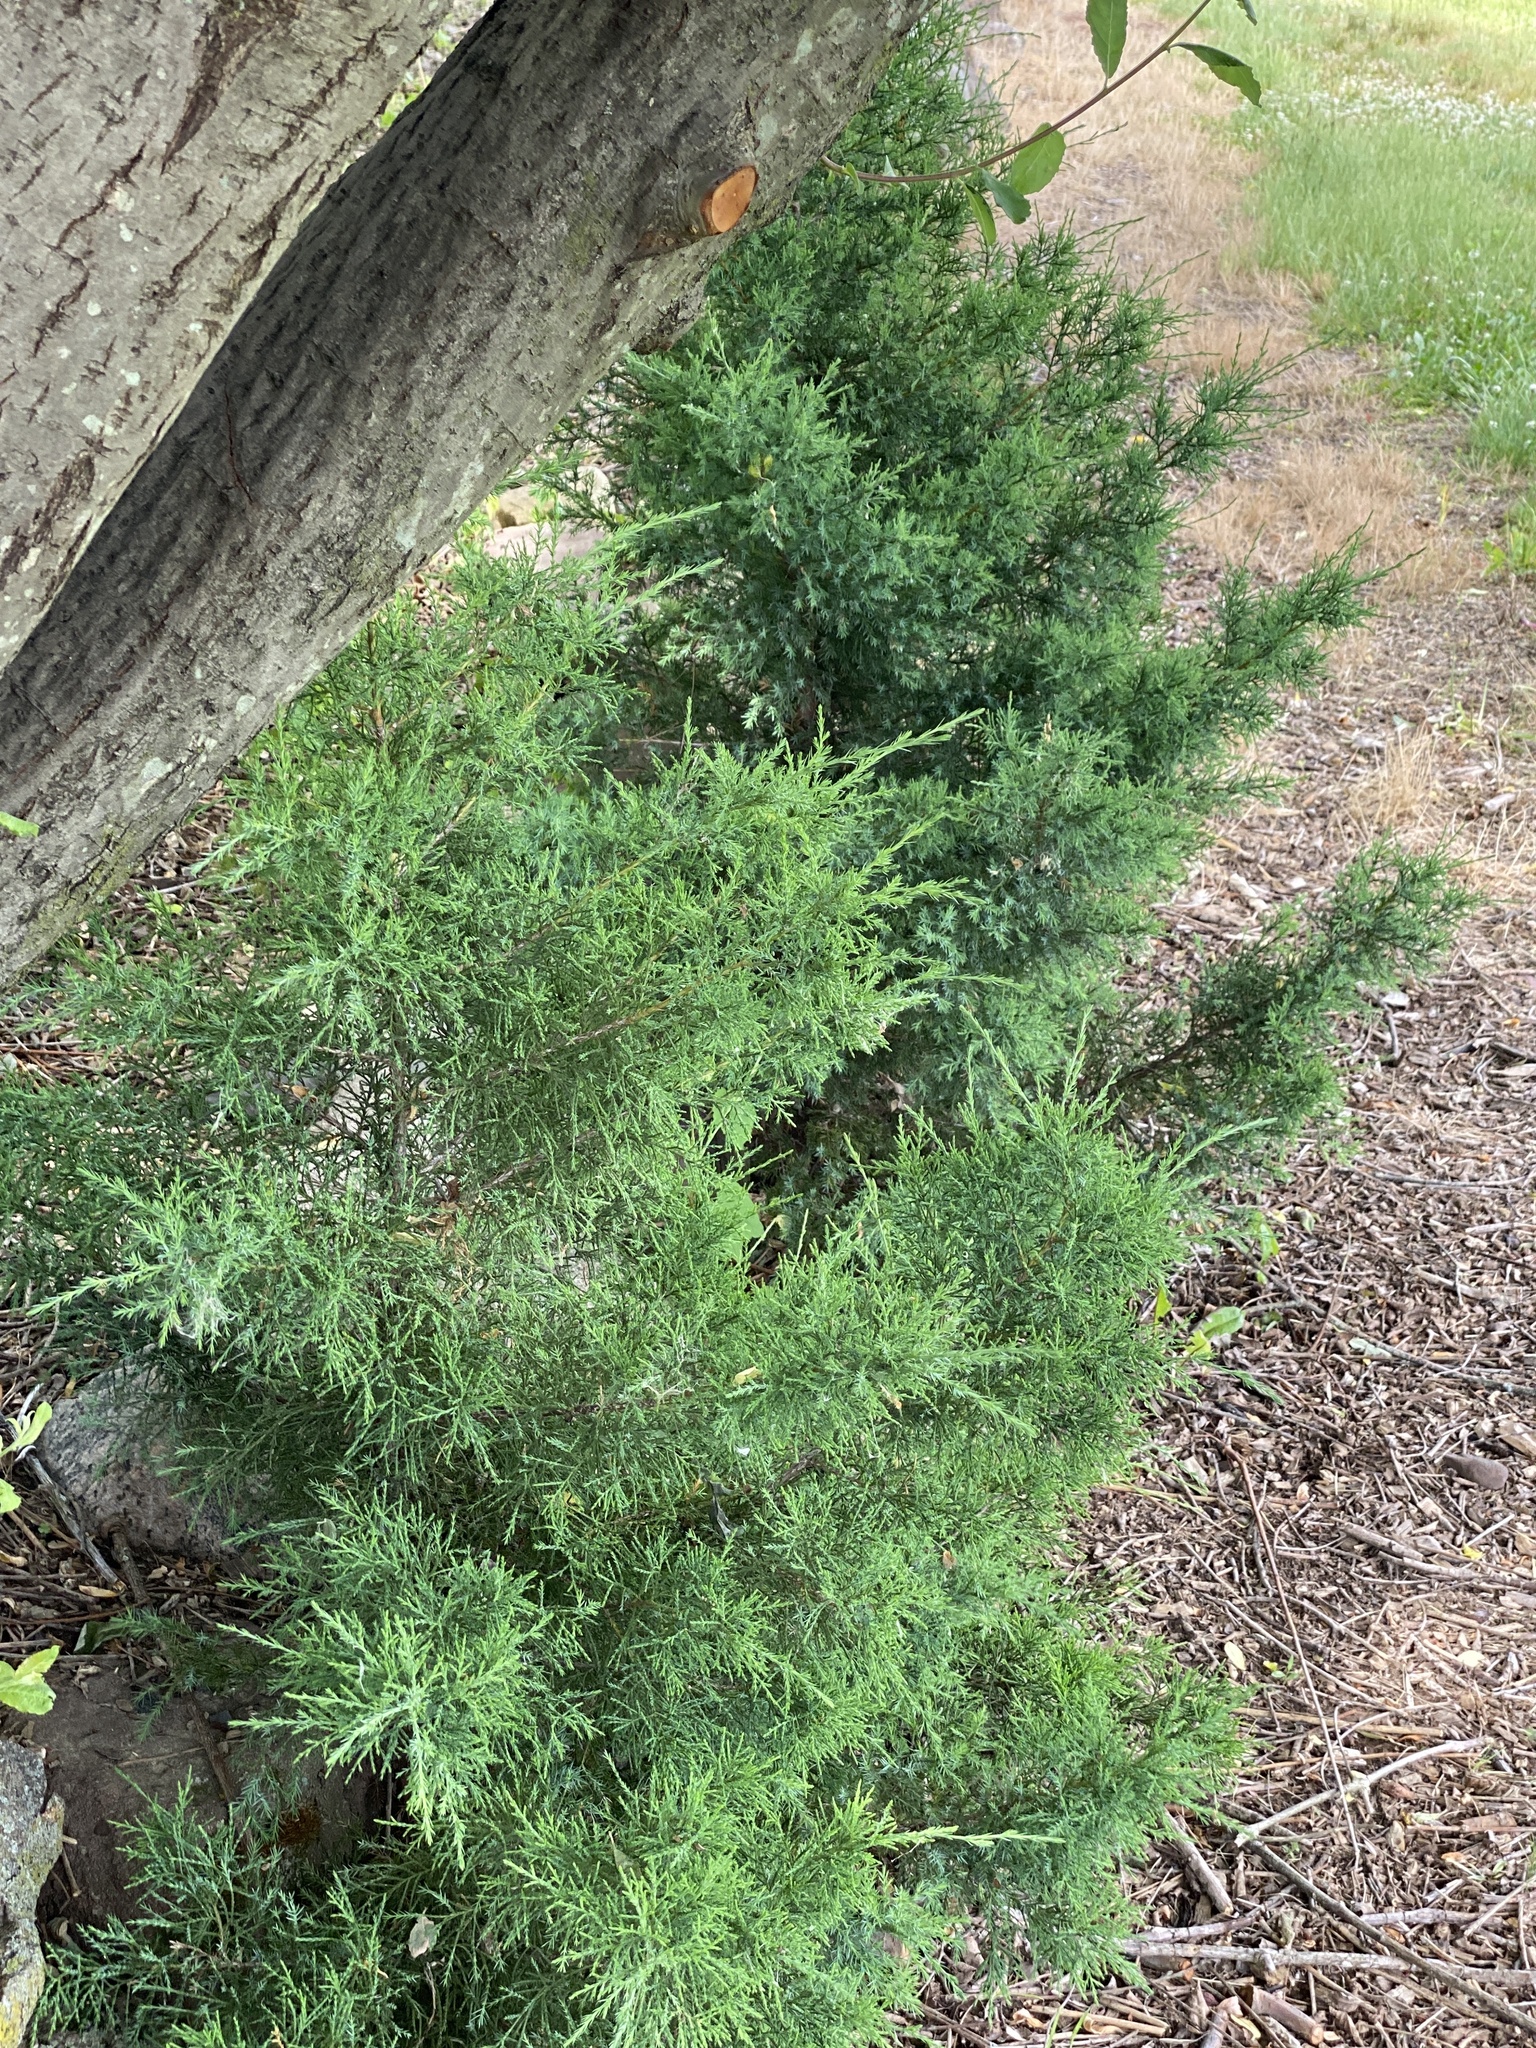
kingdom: Plantae
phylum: Tracheophyta
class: Pinopsida
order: Pinales
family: Cupressaceae
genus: Juniperus
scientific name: Juniperus virginiana
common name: Red juniper
